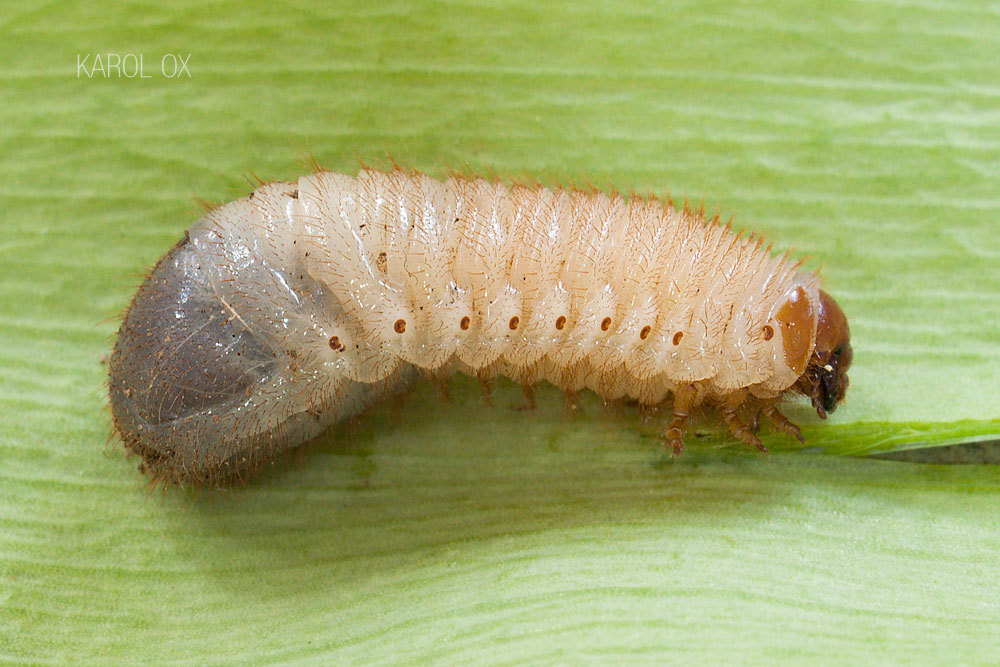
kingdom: Animalia
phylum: Arthropoda
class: Insecta
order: Coleoptera
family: Scarabaeidae
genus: Cetonia
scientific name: Cetonia aurata
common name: Rose chafer
